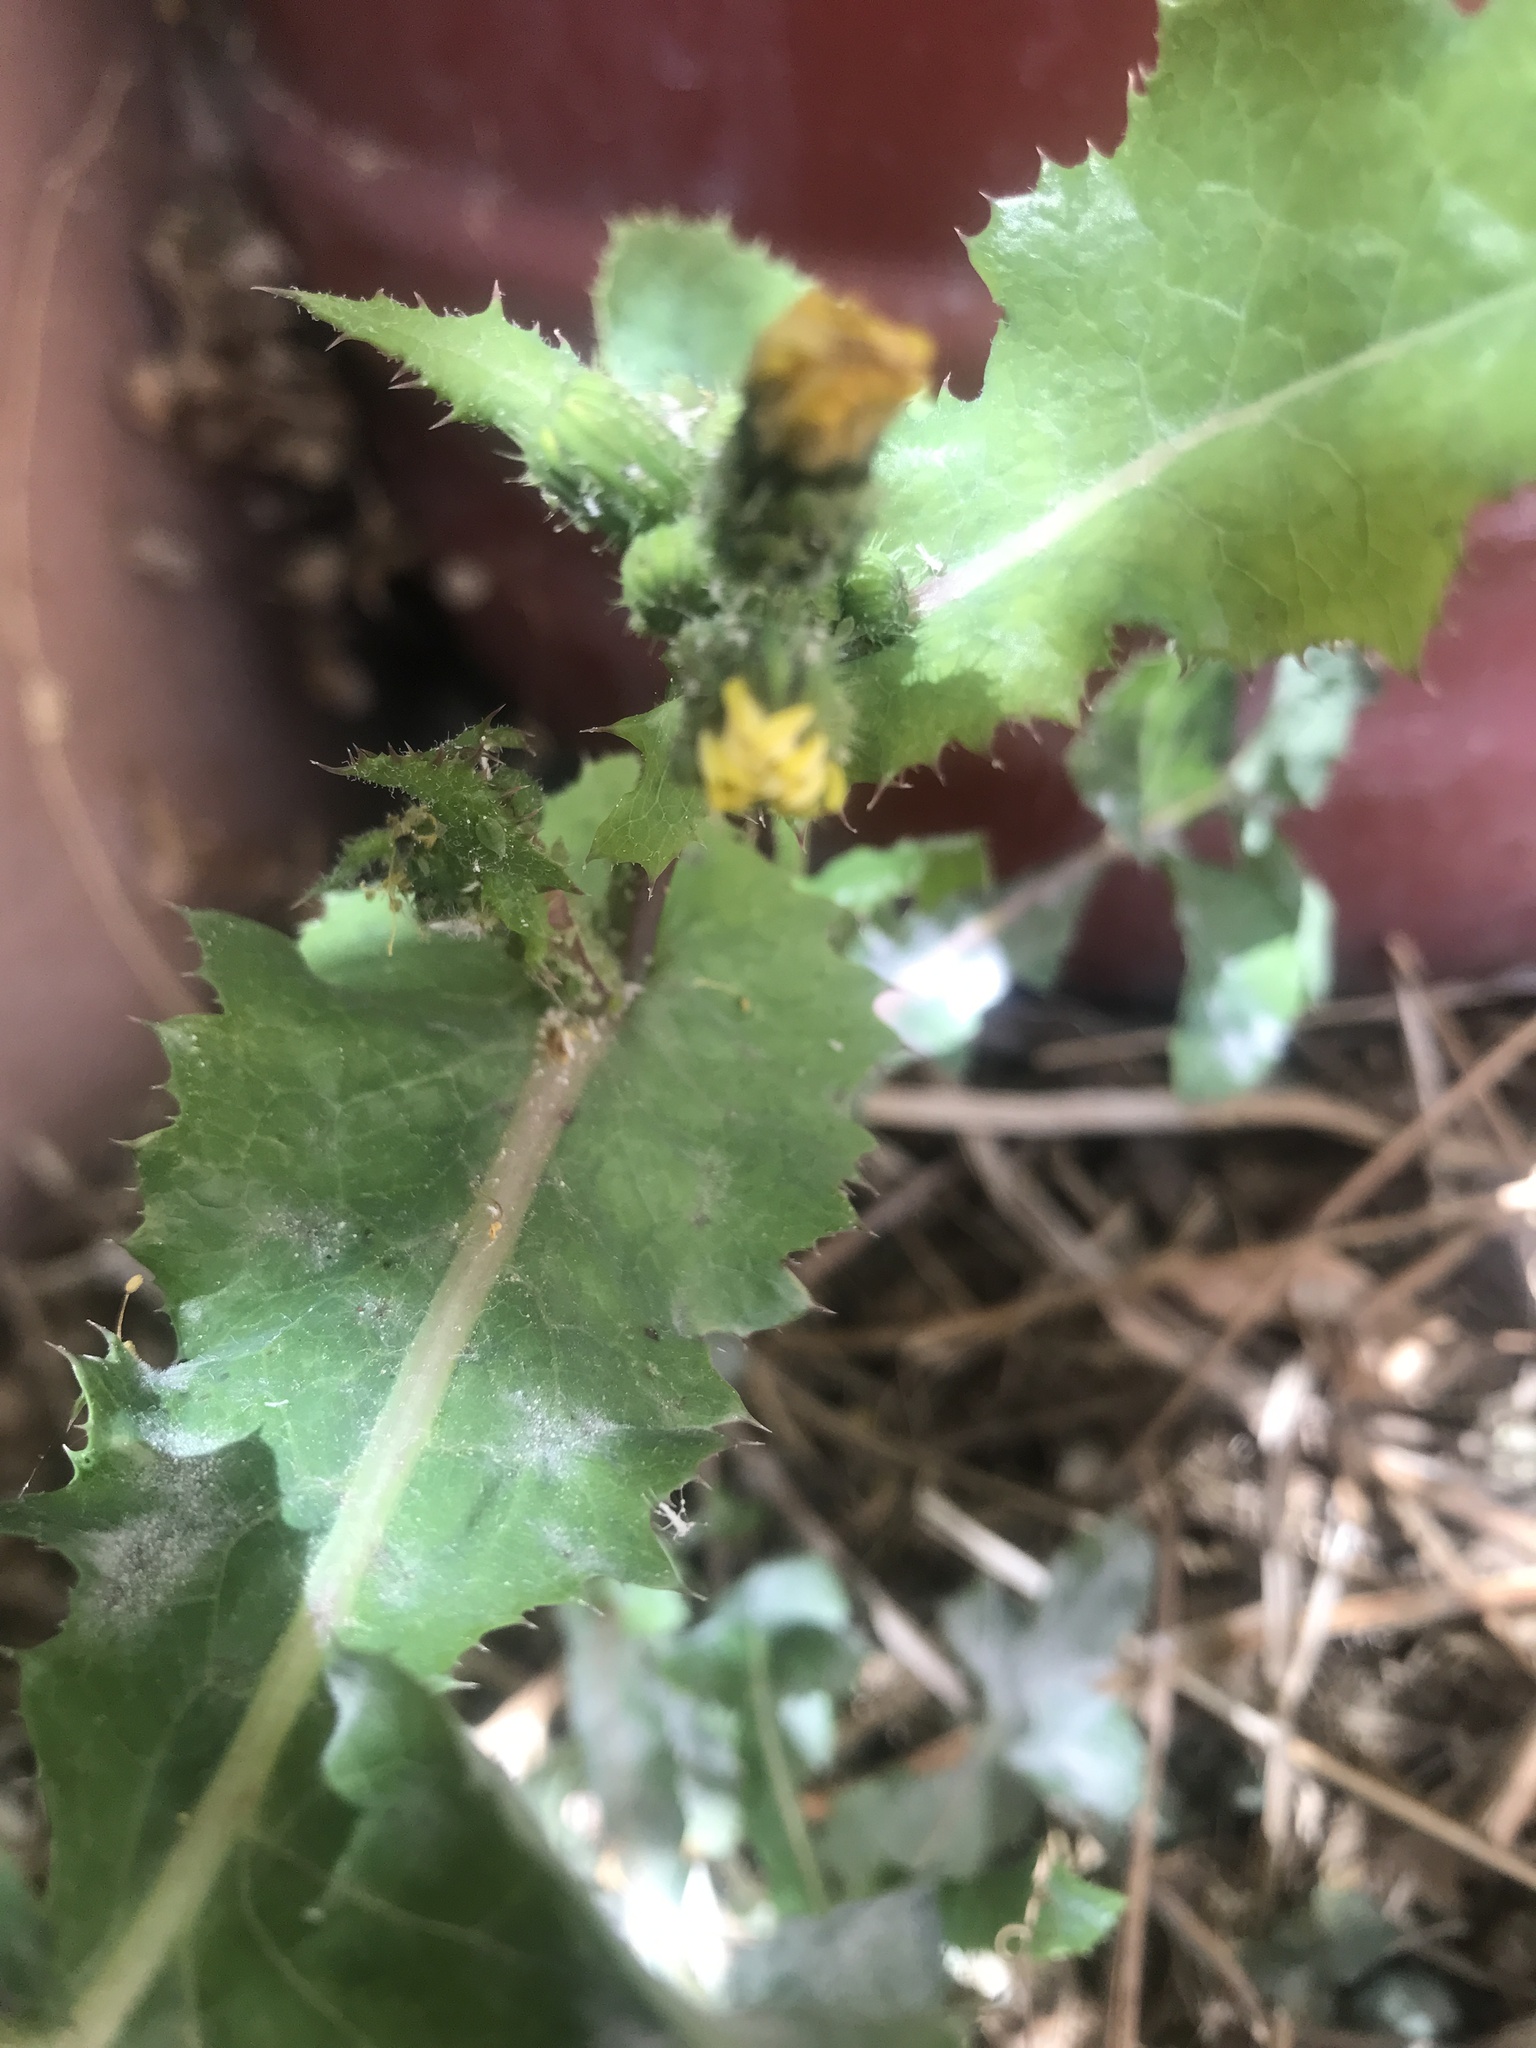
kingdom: Plantae
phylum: Tracheophyta
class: Magnoliopsida
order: Asterales
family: Asteraceae
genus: Sonchus
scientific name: Sonchus asper
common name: Prickly sow-thistle
